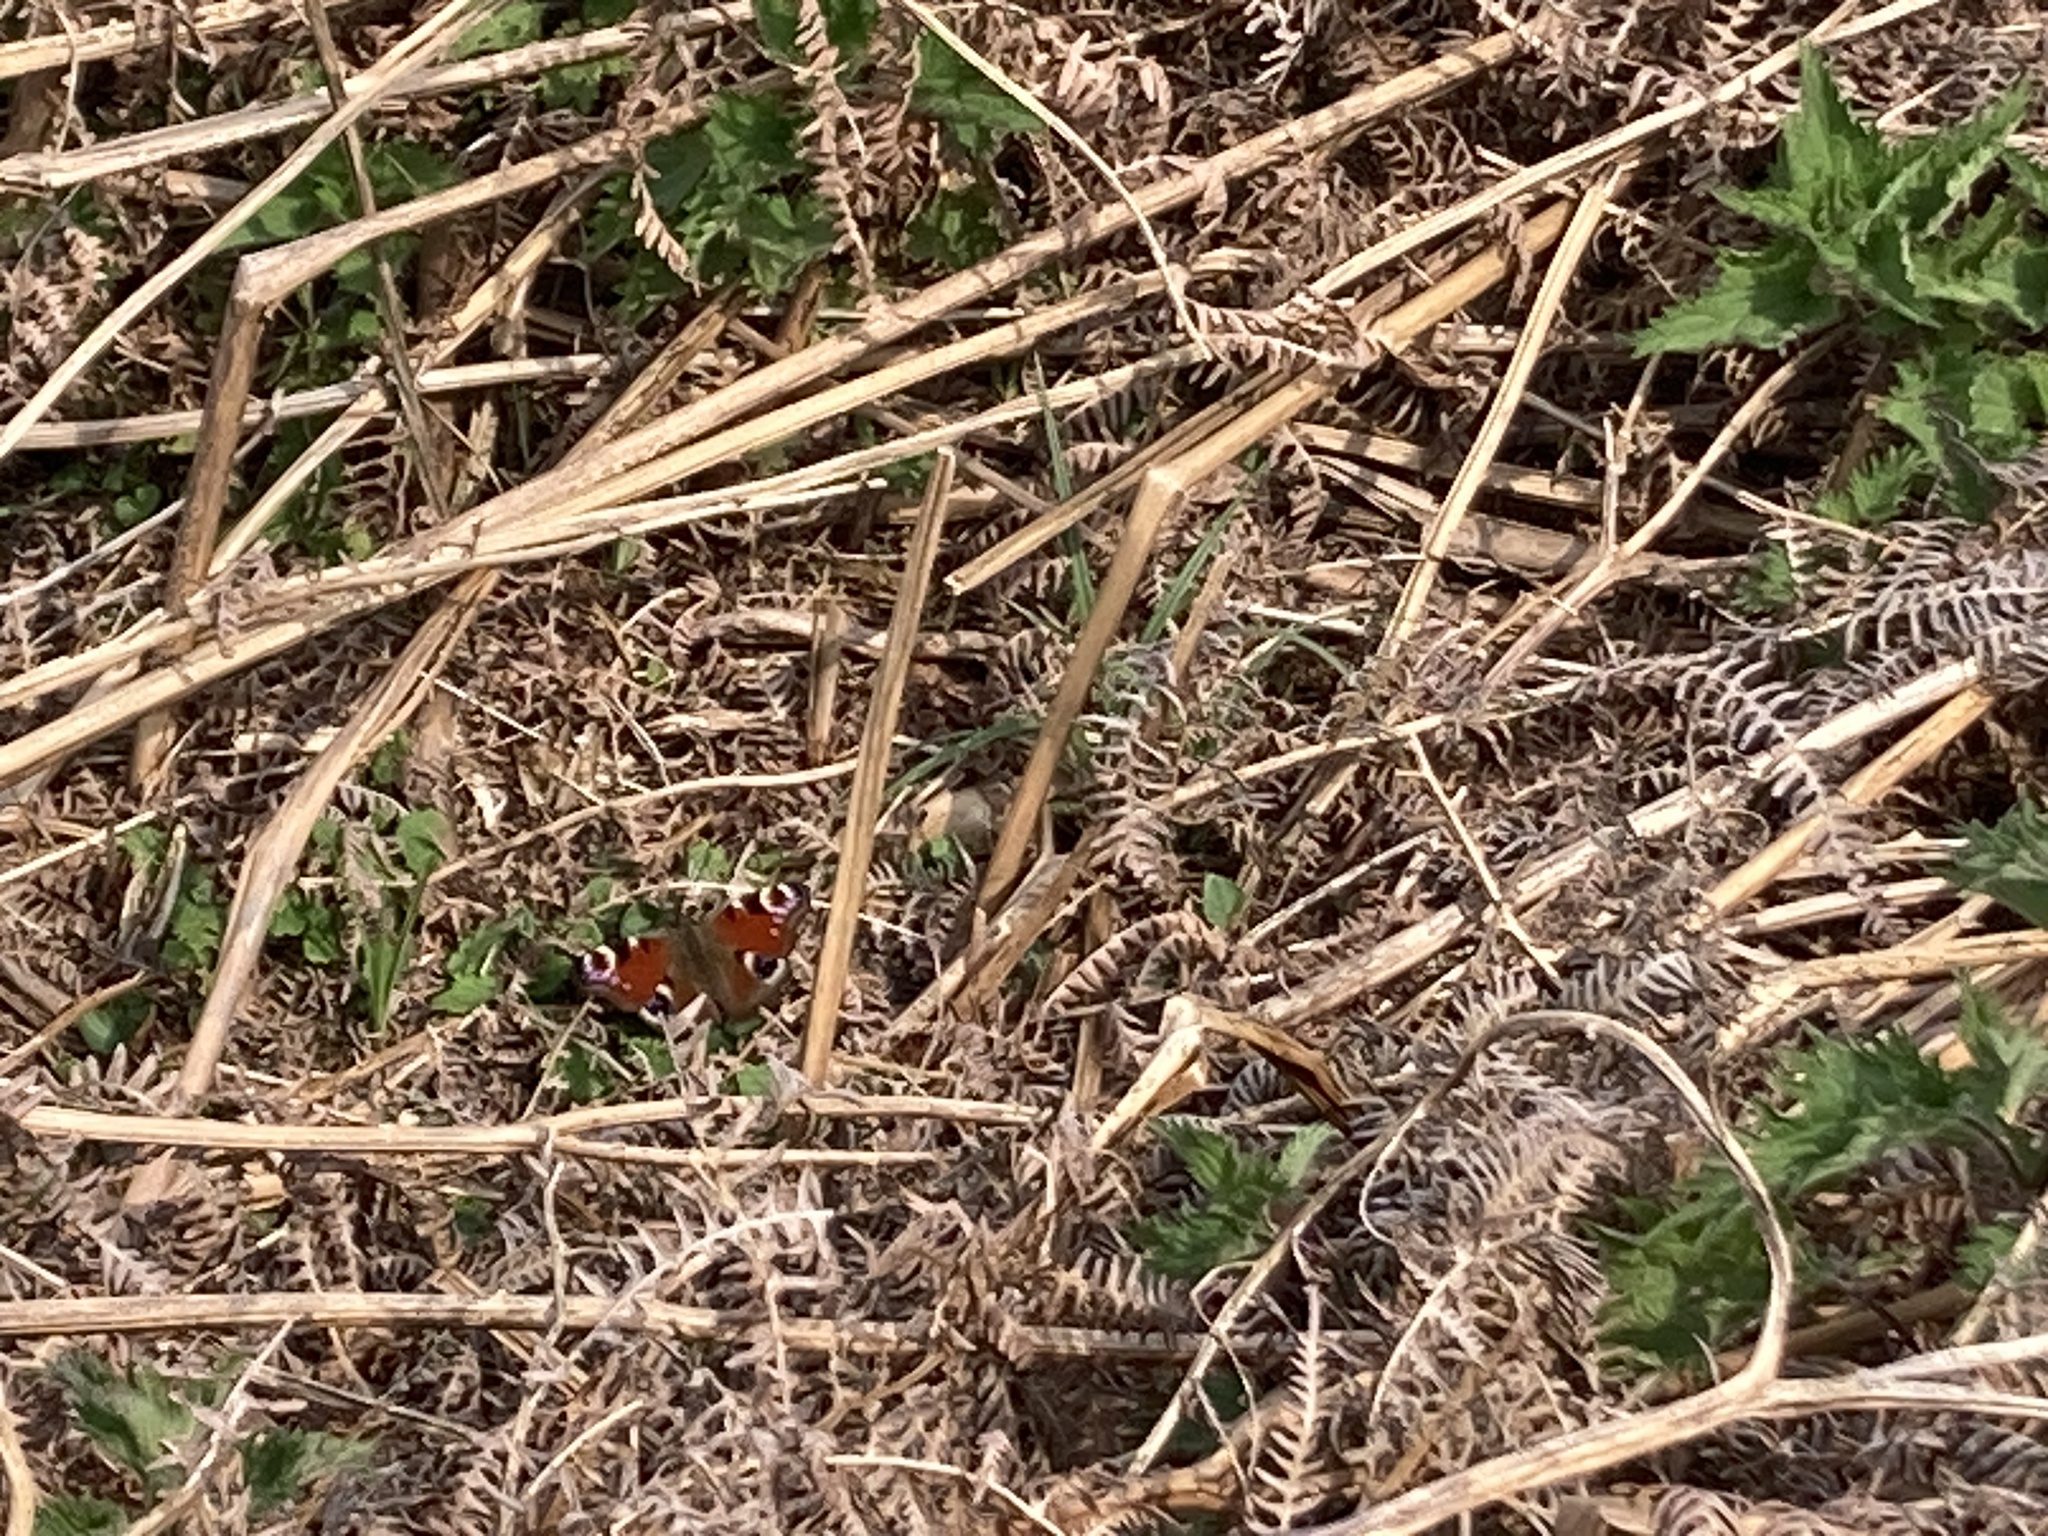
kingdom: Animalia
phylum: Arthropoda
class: Insecta
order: Lepidoptera
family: Nymphalidae
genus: Aglais
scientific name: Aglais io
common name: Peacock
